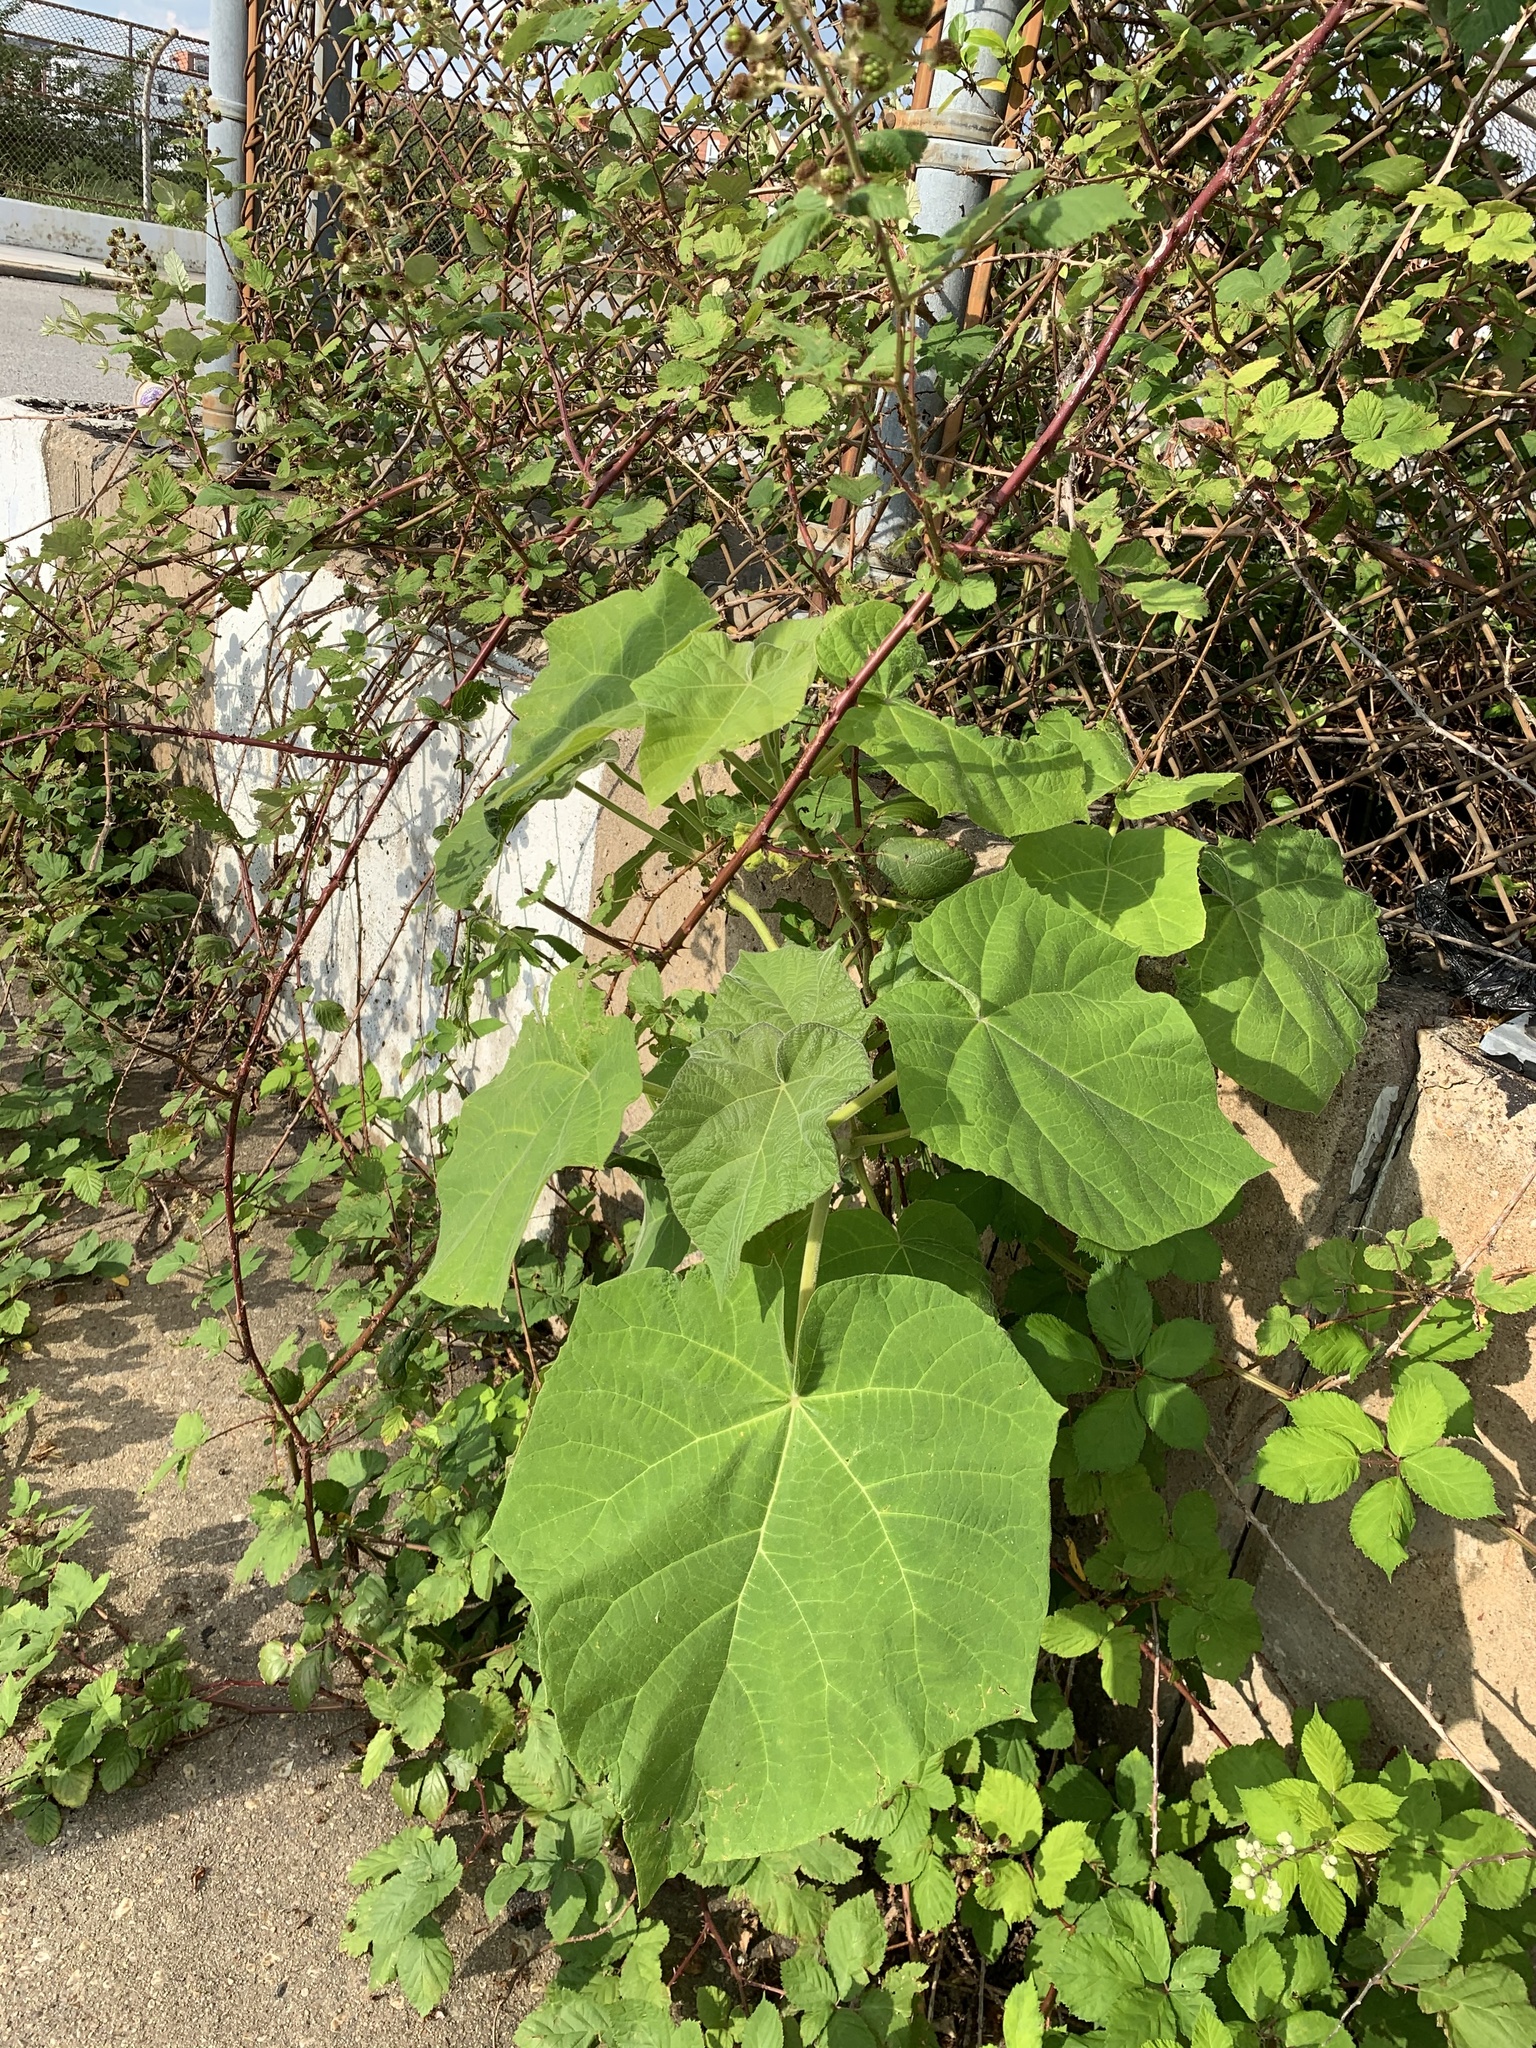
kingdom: Plantae
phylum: Tracheophyta
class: Magnoliopsida
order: Lamiales
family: Paulowniaceae
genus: Paulownia
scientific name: Paulownia tomentosa
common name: Foxglove-tree
